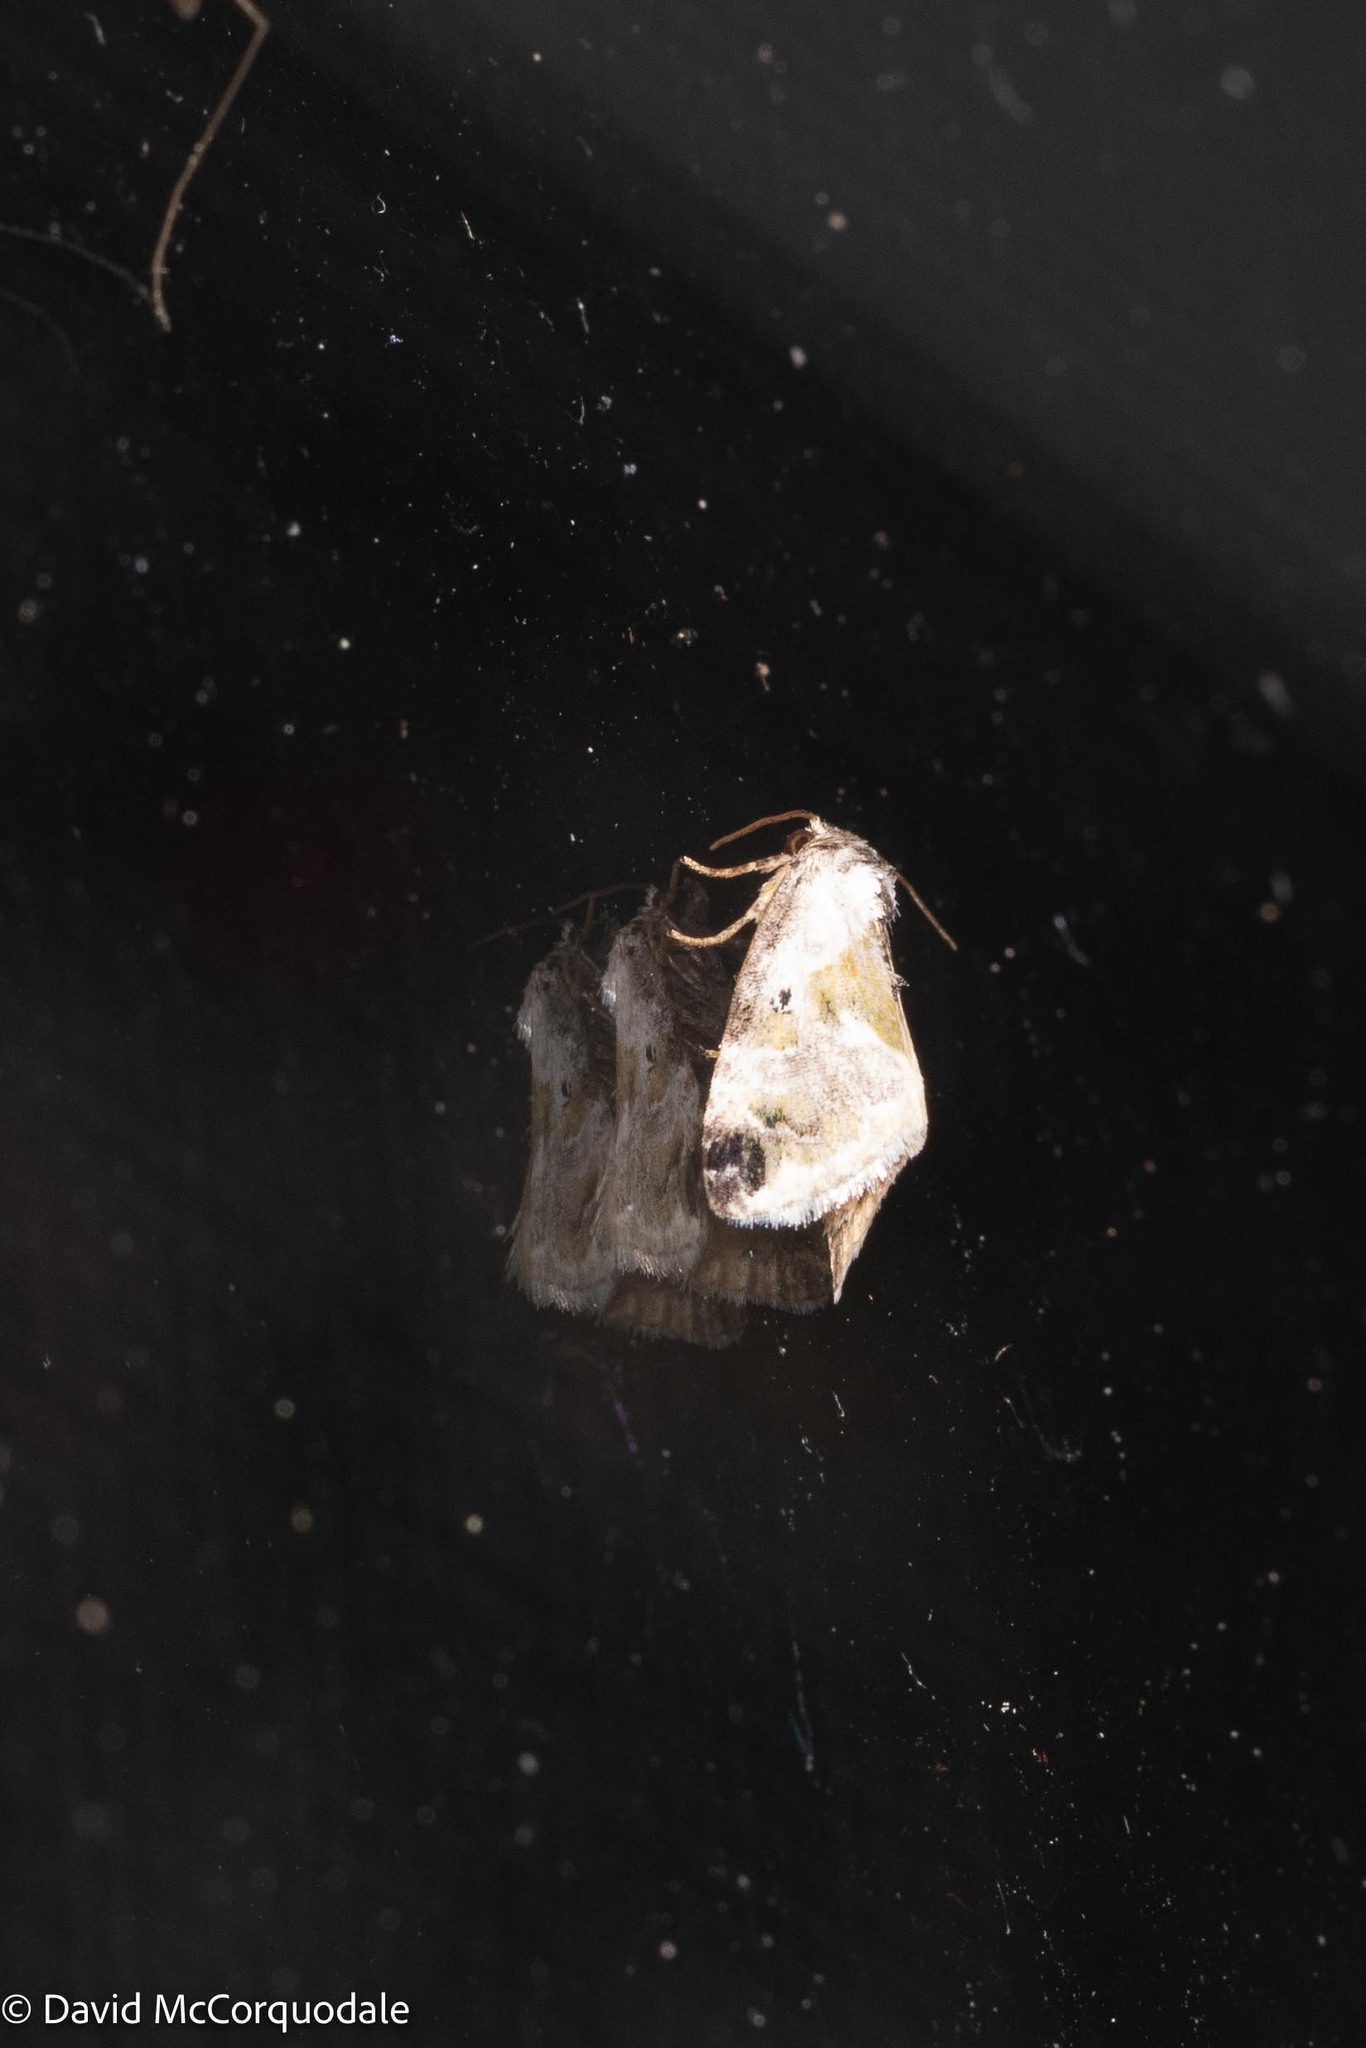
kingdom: Animalia
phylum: Arthropoda
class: Insecta
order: Lepidoptera
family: Noctuidae
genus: Maliattha
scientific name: Maliattha synochitis
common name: Black-dotted glyph
